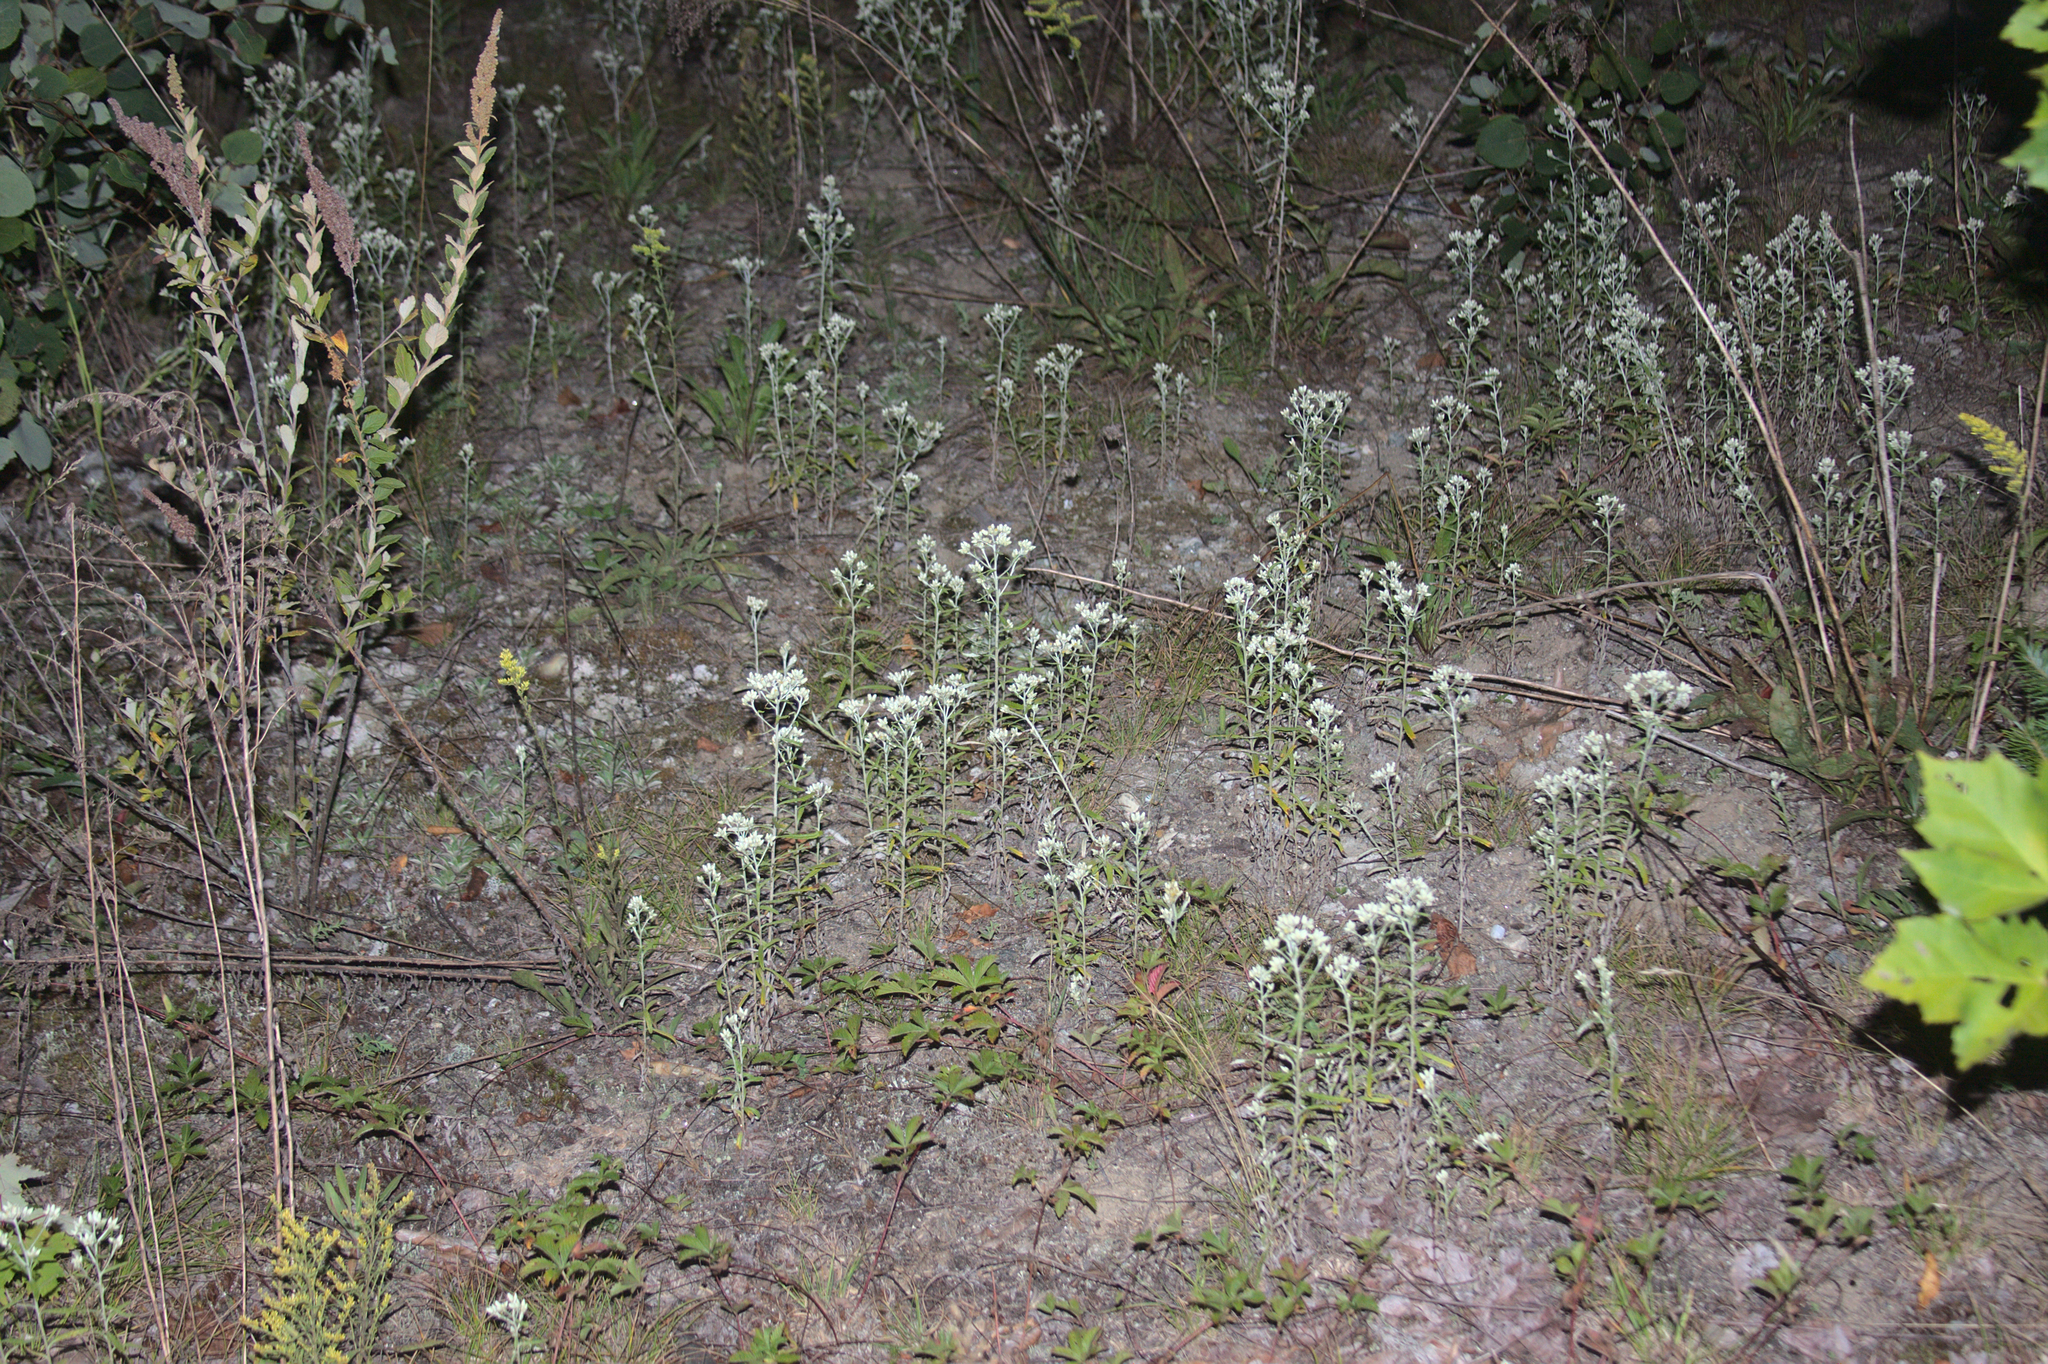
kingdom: Plantae
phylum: Tracheophyta
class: Magnoliopsida
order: Asterales
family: Asteraceae
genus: Pseudognaphalium
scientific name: Pseudognaphalium obtusifolium
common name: Eastern rabbit-tobacco
